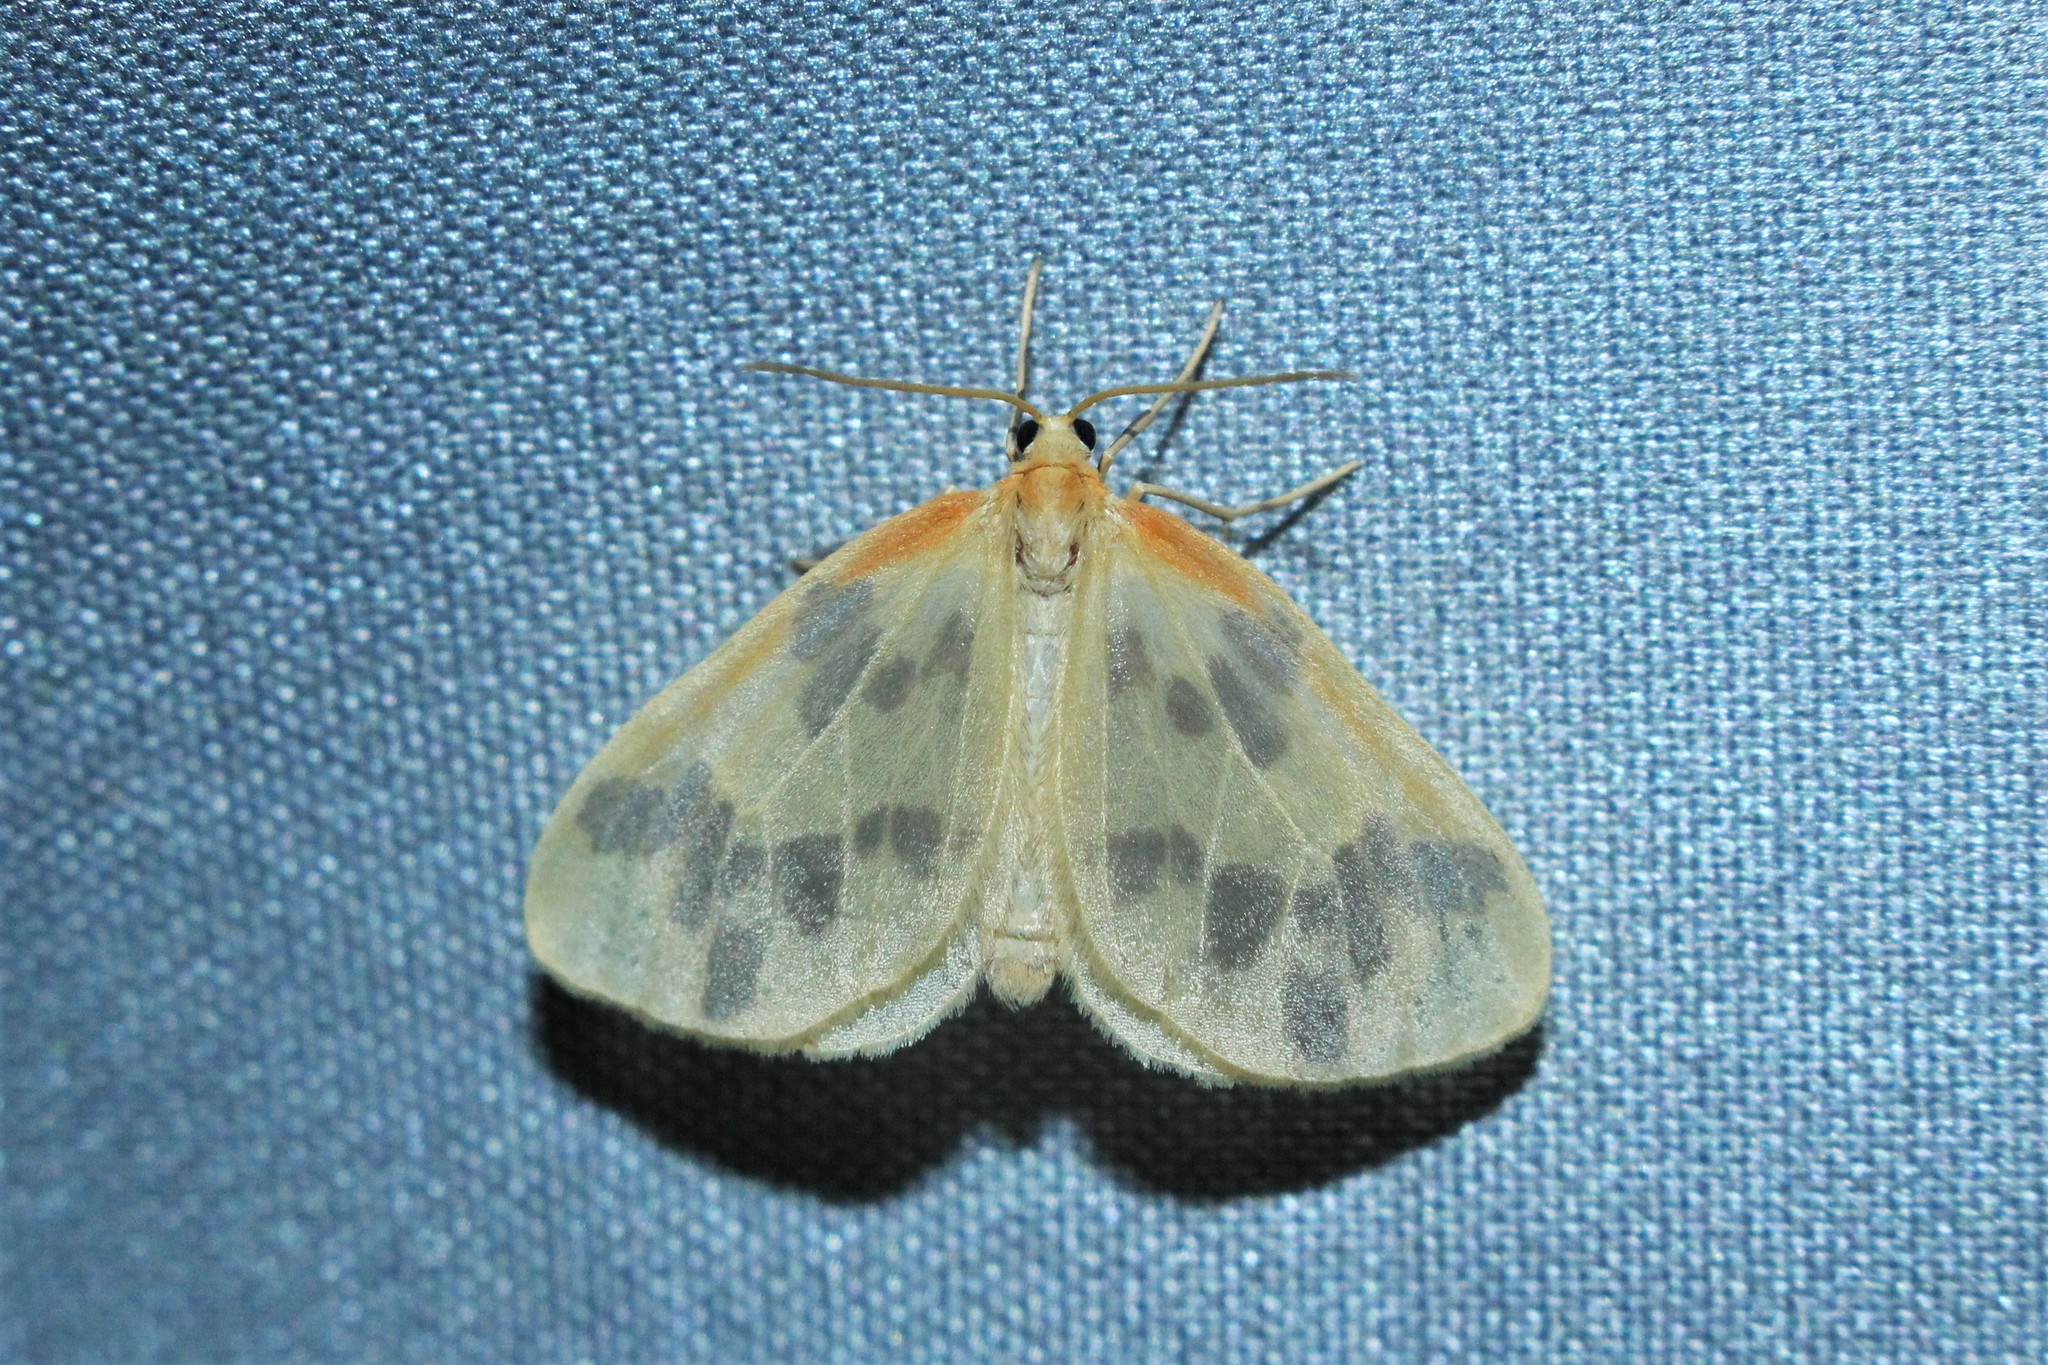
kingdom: Animalia
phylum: Arthropoda
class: Insecta
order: Lepidoptera
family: Geometridae
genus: Eubaphe
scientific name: Eubaphe mendica
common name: Beggar
